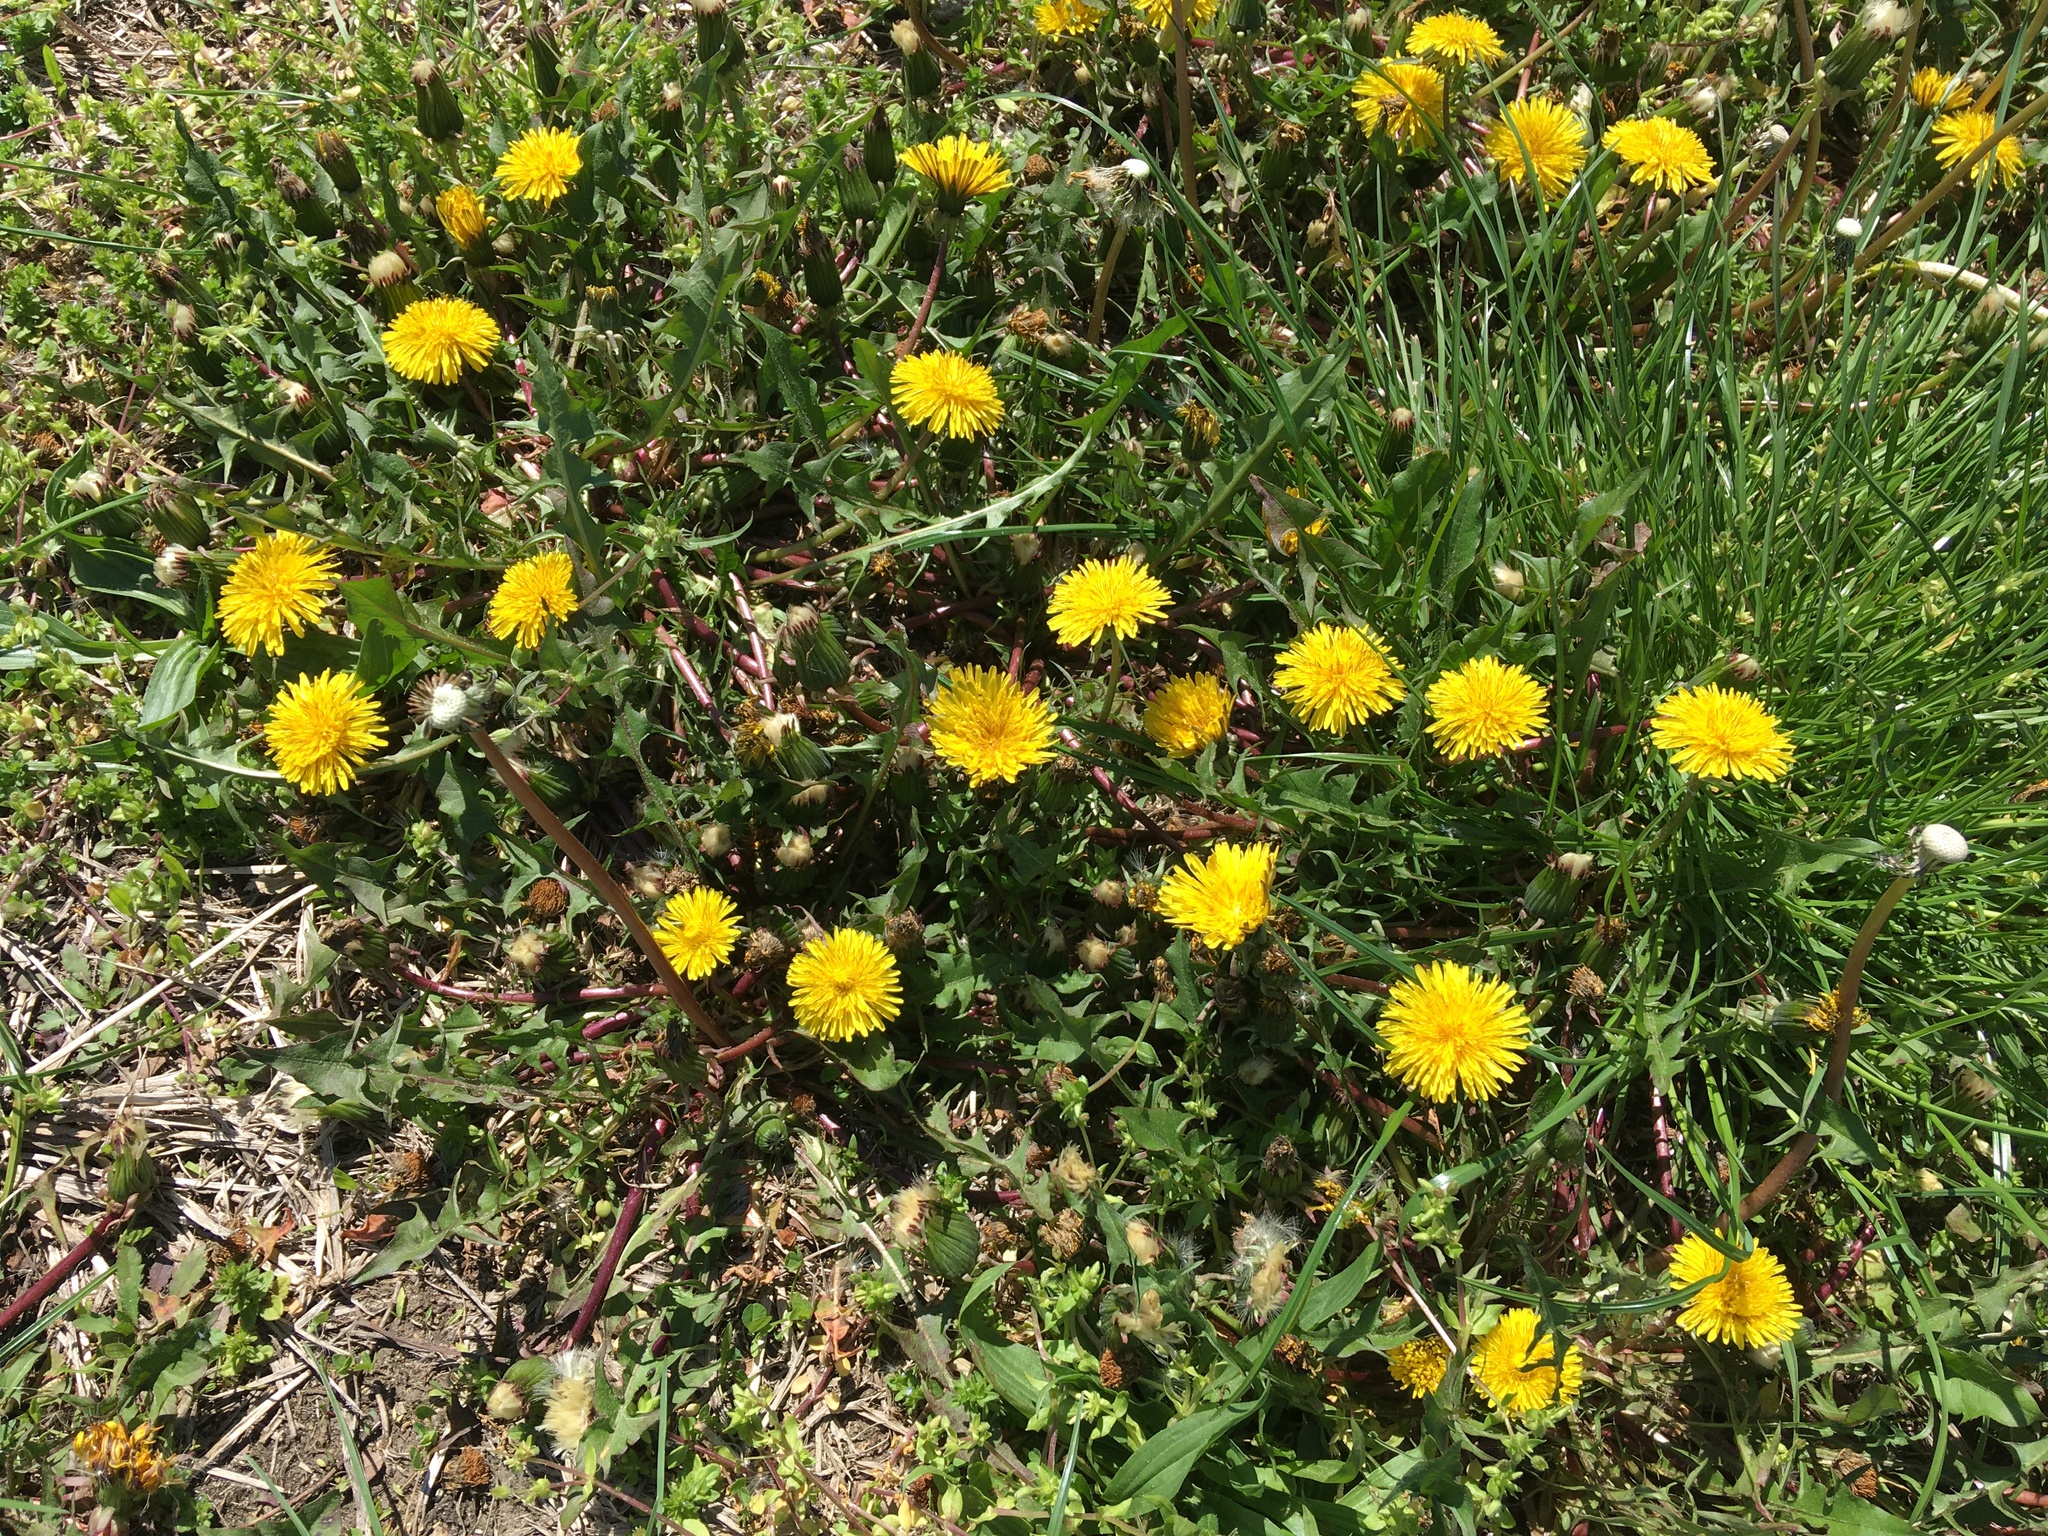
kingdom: Plantae
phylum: Tracheophyta
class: Magnoliopsida
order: Asterales
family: Asteraceae
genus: Taraxacum
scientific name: Taraxacum officinale
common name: Common dandelion
